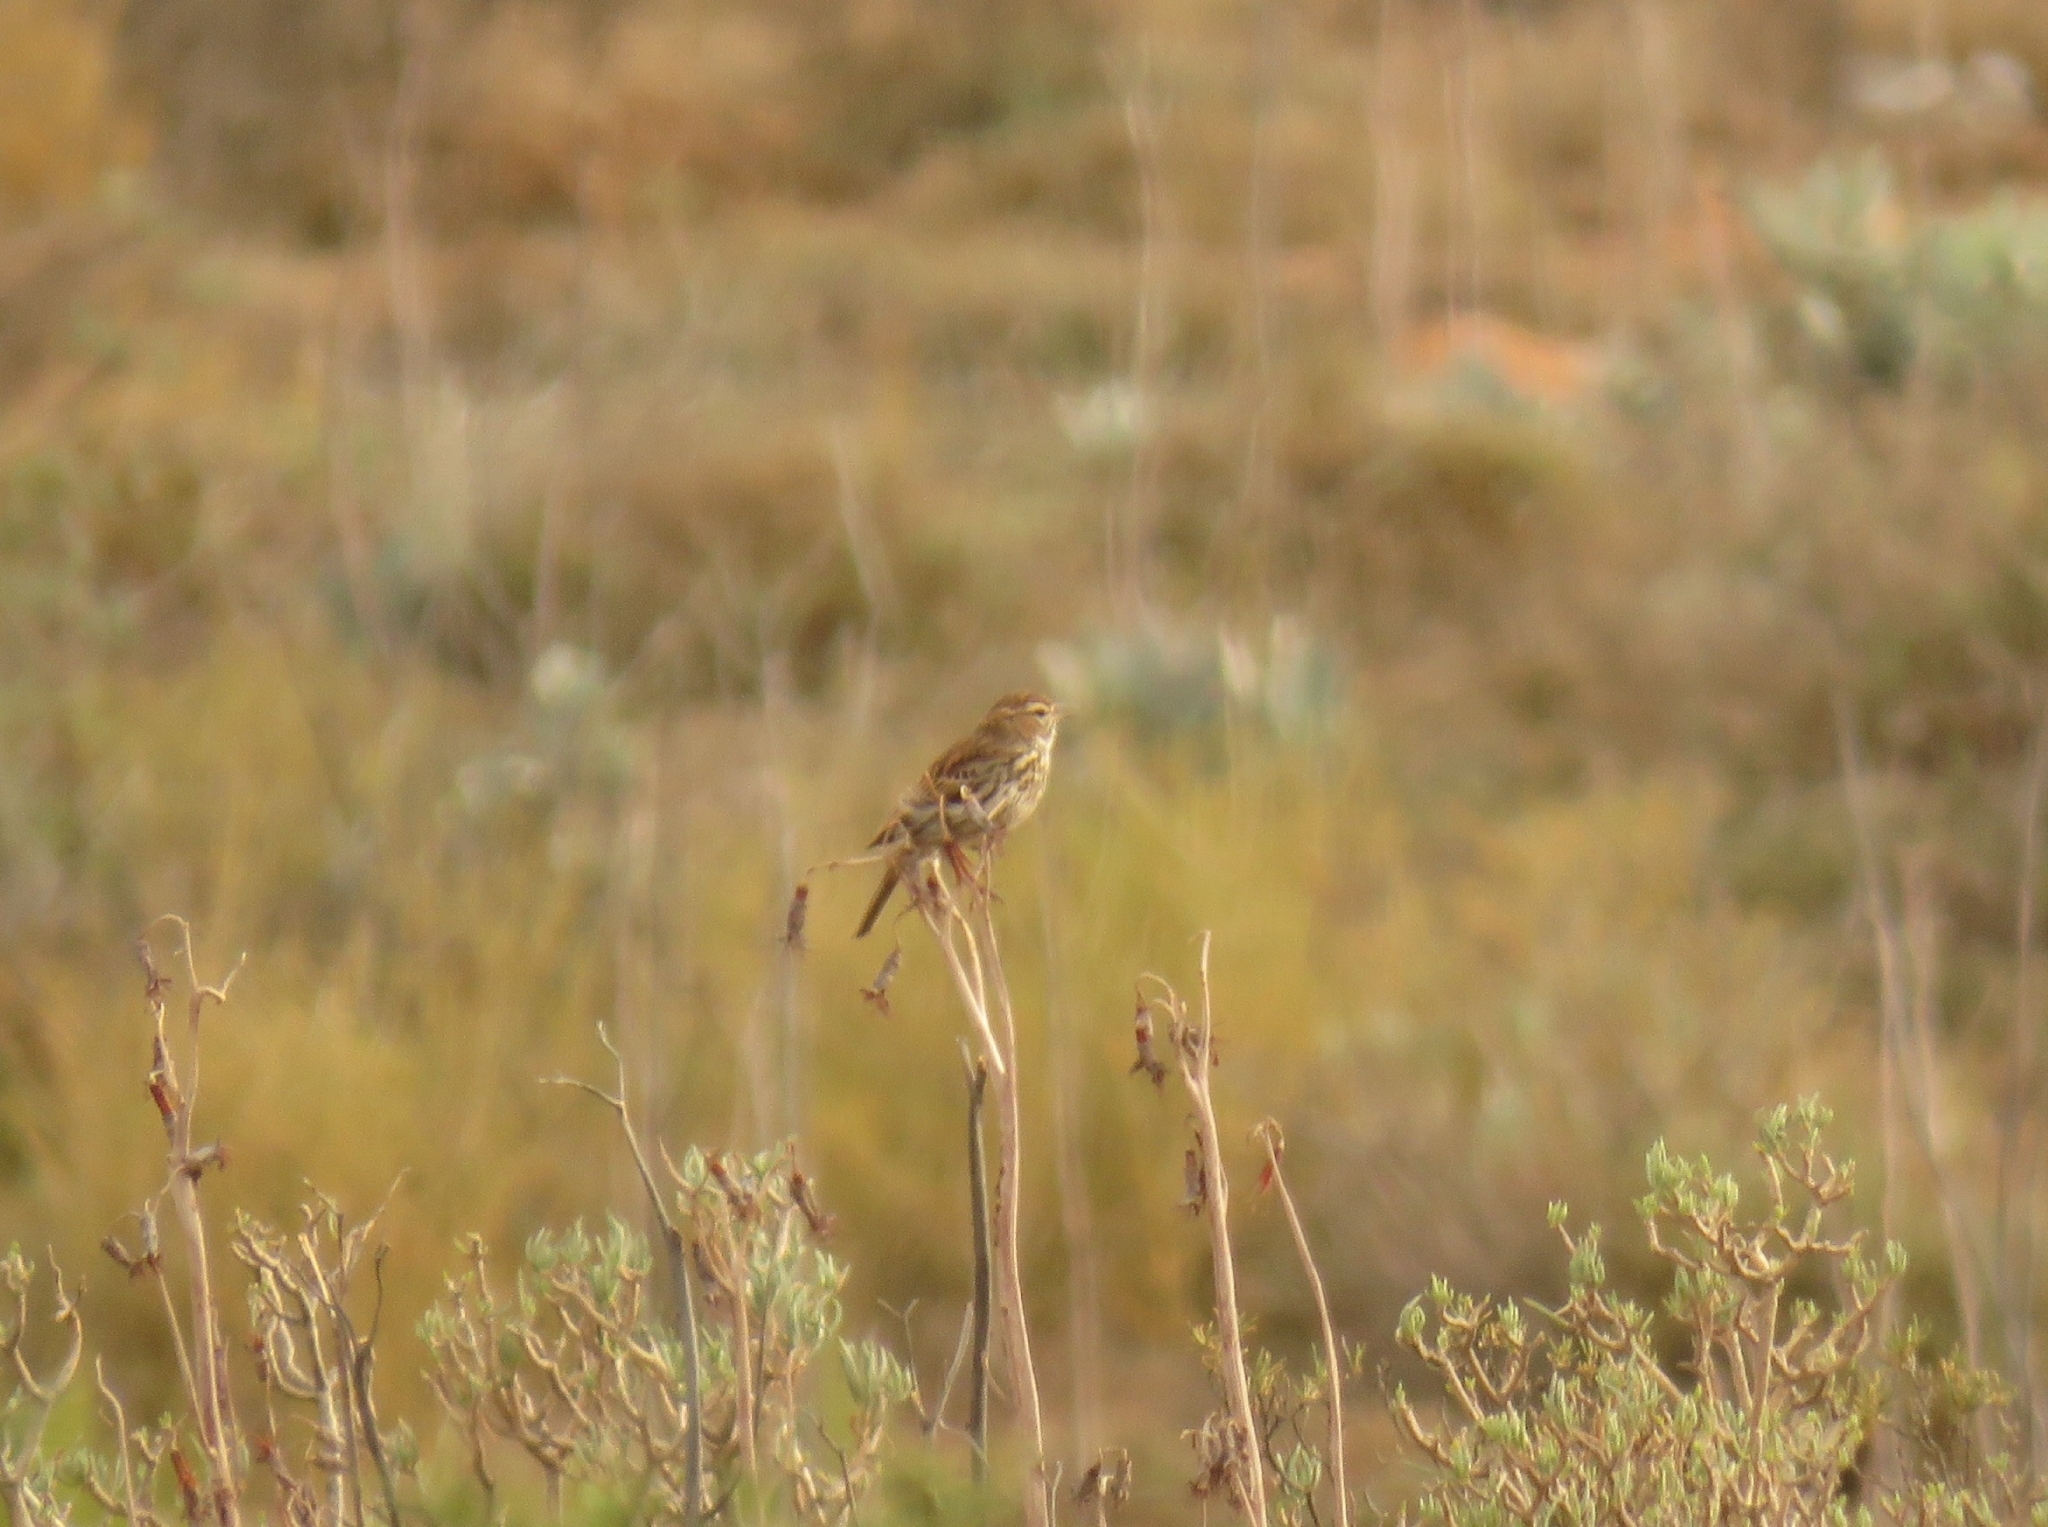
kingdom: Animalia
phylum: Chordata
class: Aves
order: Passeriformes
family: Alaudidae
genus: Calendulauda
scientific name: Calendulauda albescens
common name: Karoo lark
